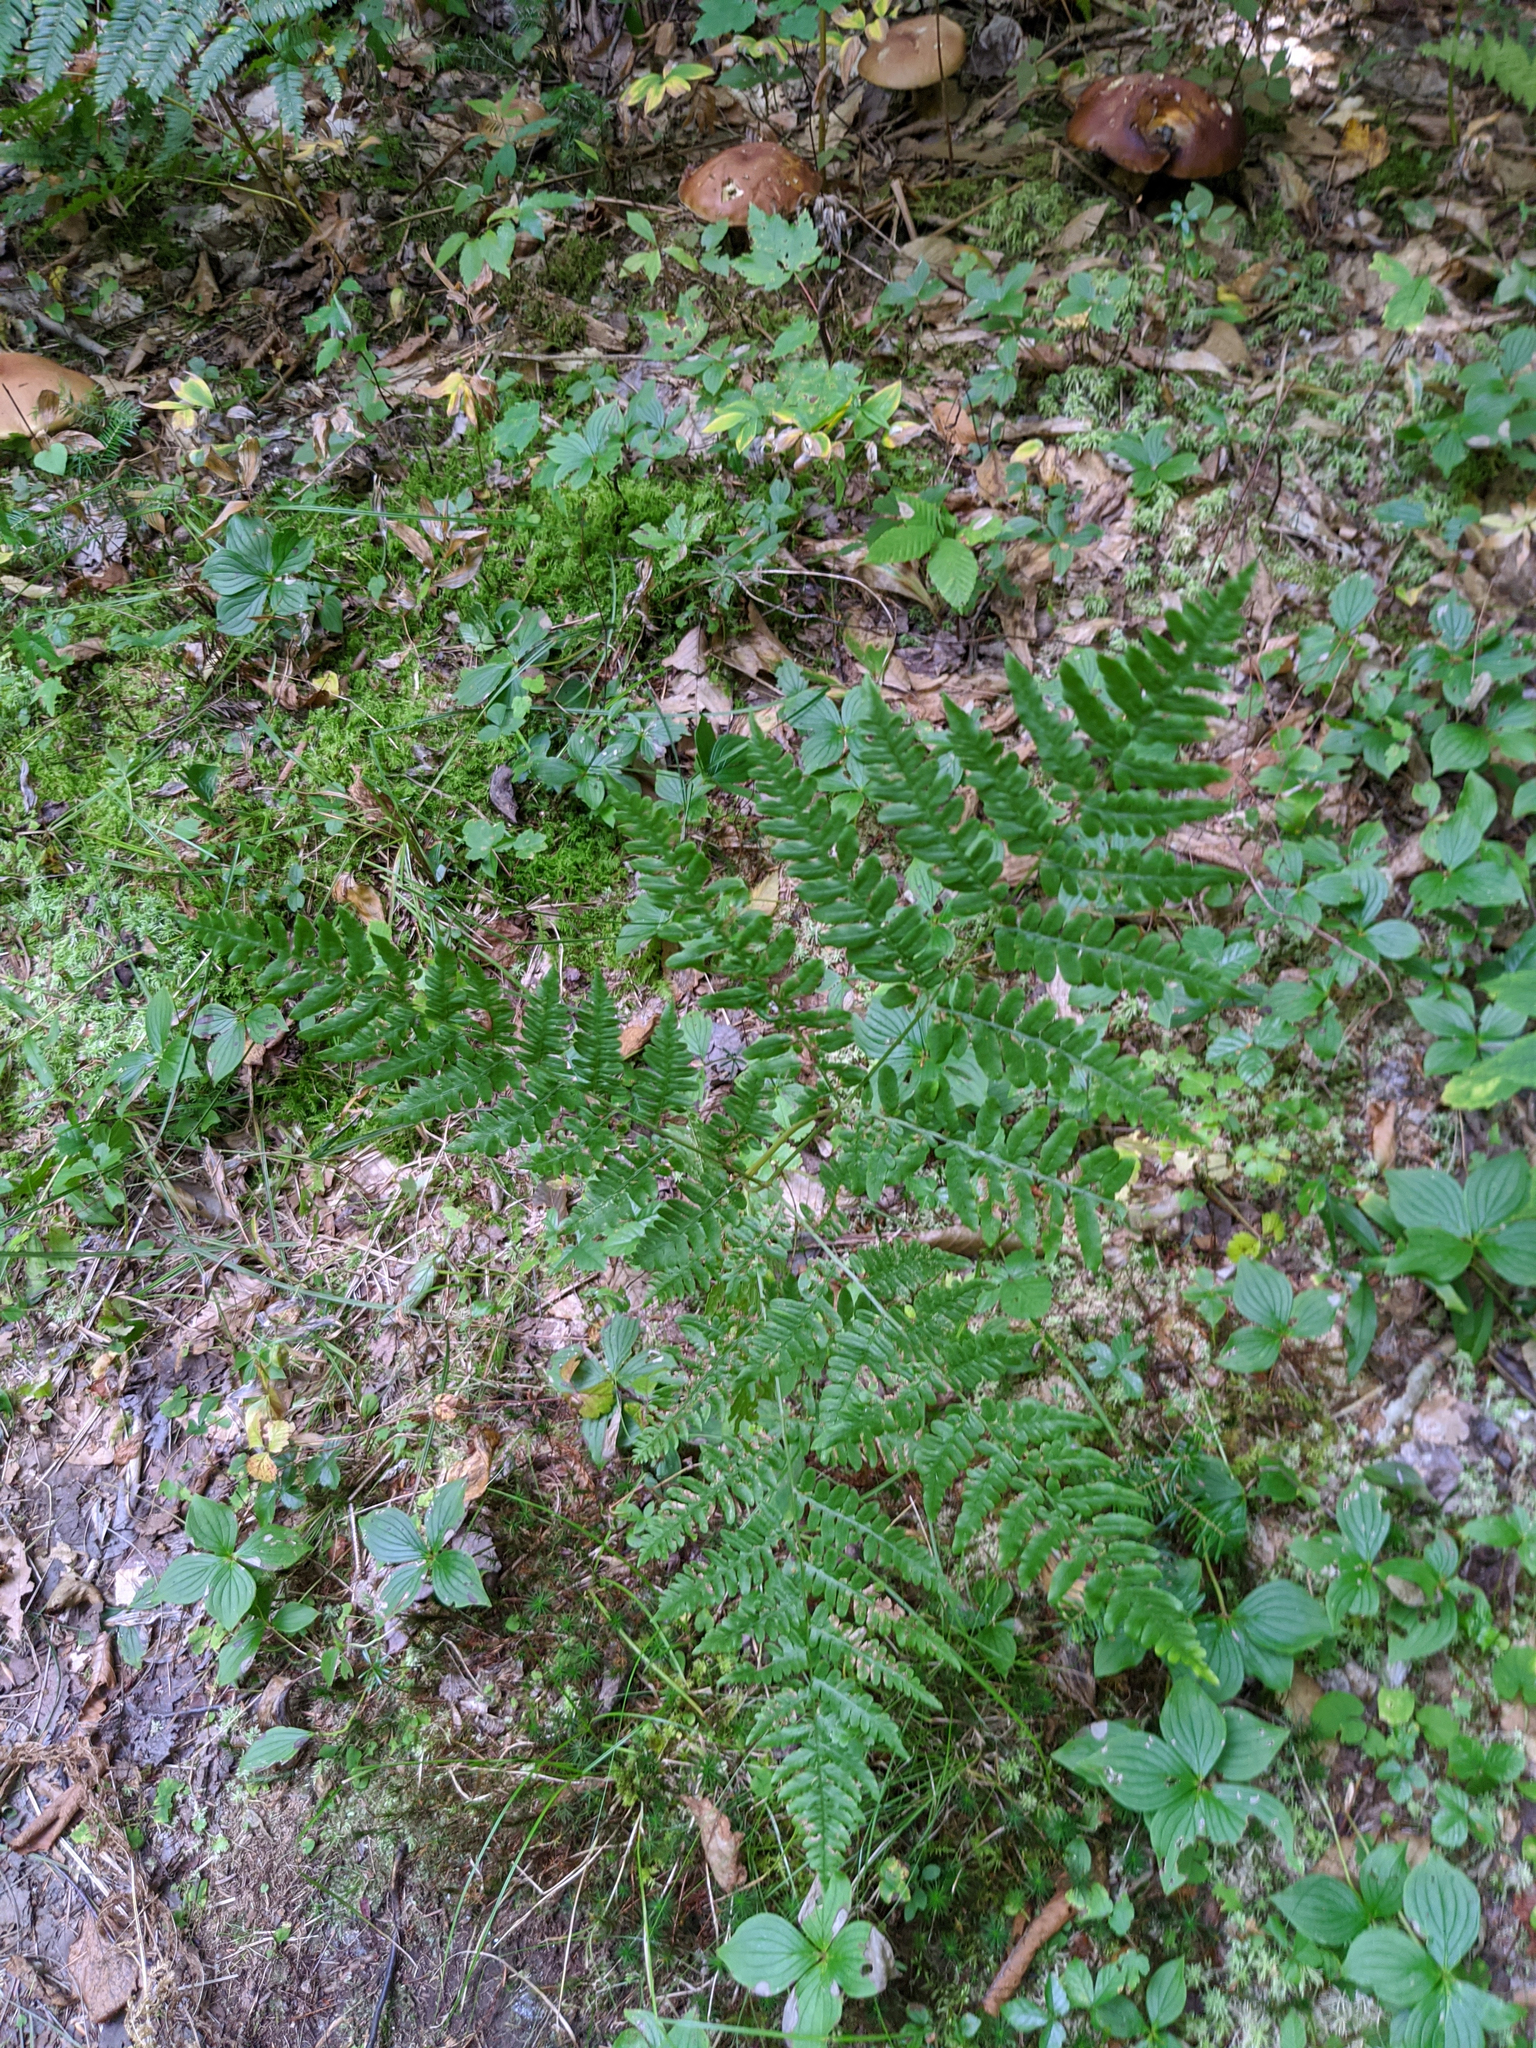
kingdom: Plantae
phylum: Tracheophyta
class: Polypodiopsida
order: Polypodiales
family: Dennstaedtiaceae
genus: Pteridium
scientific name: Pteridium aquilinum
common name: Bracken
